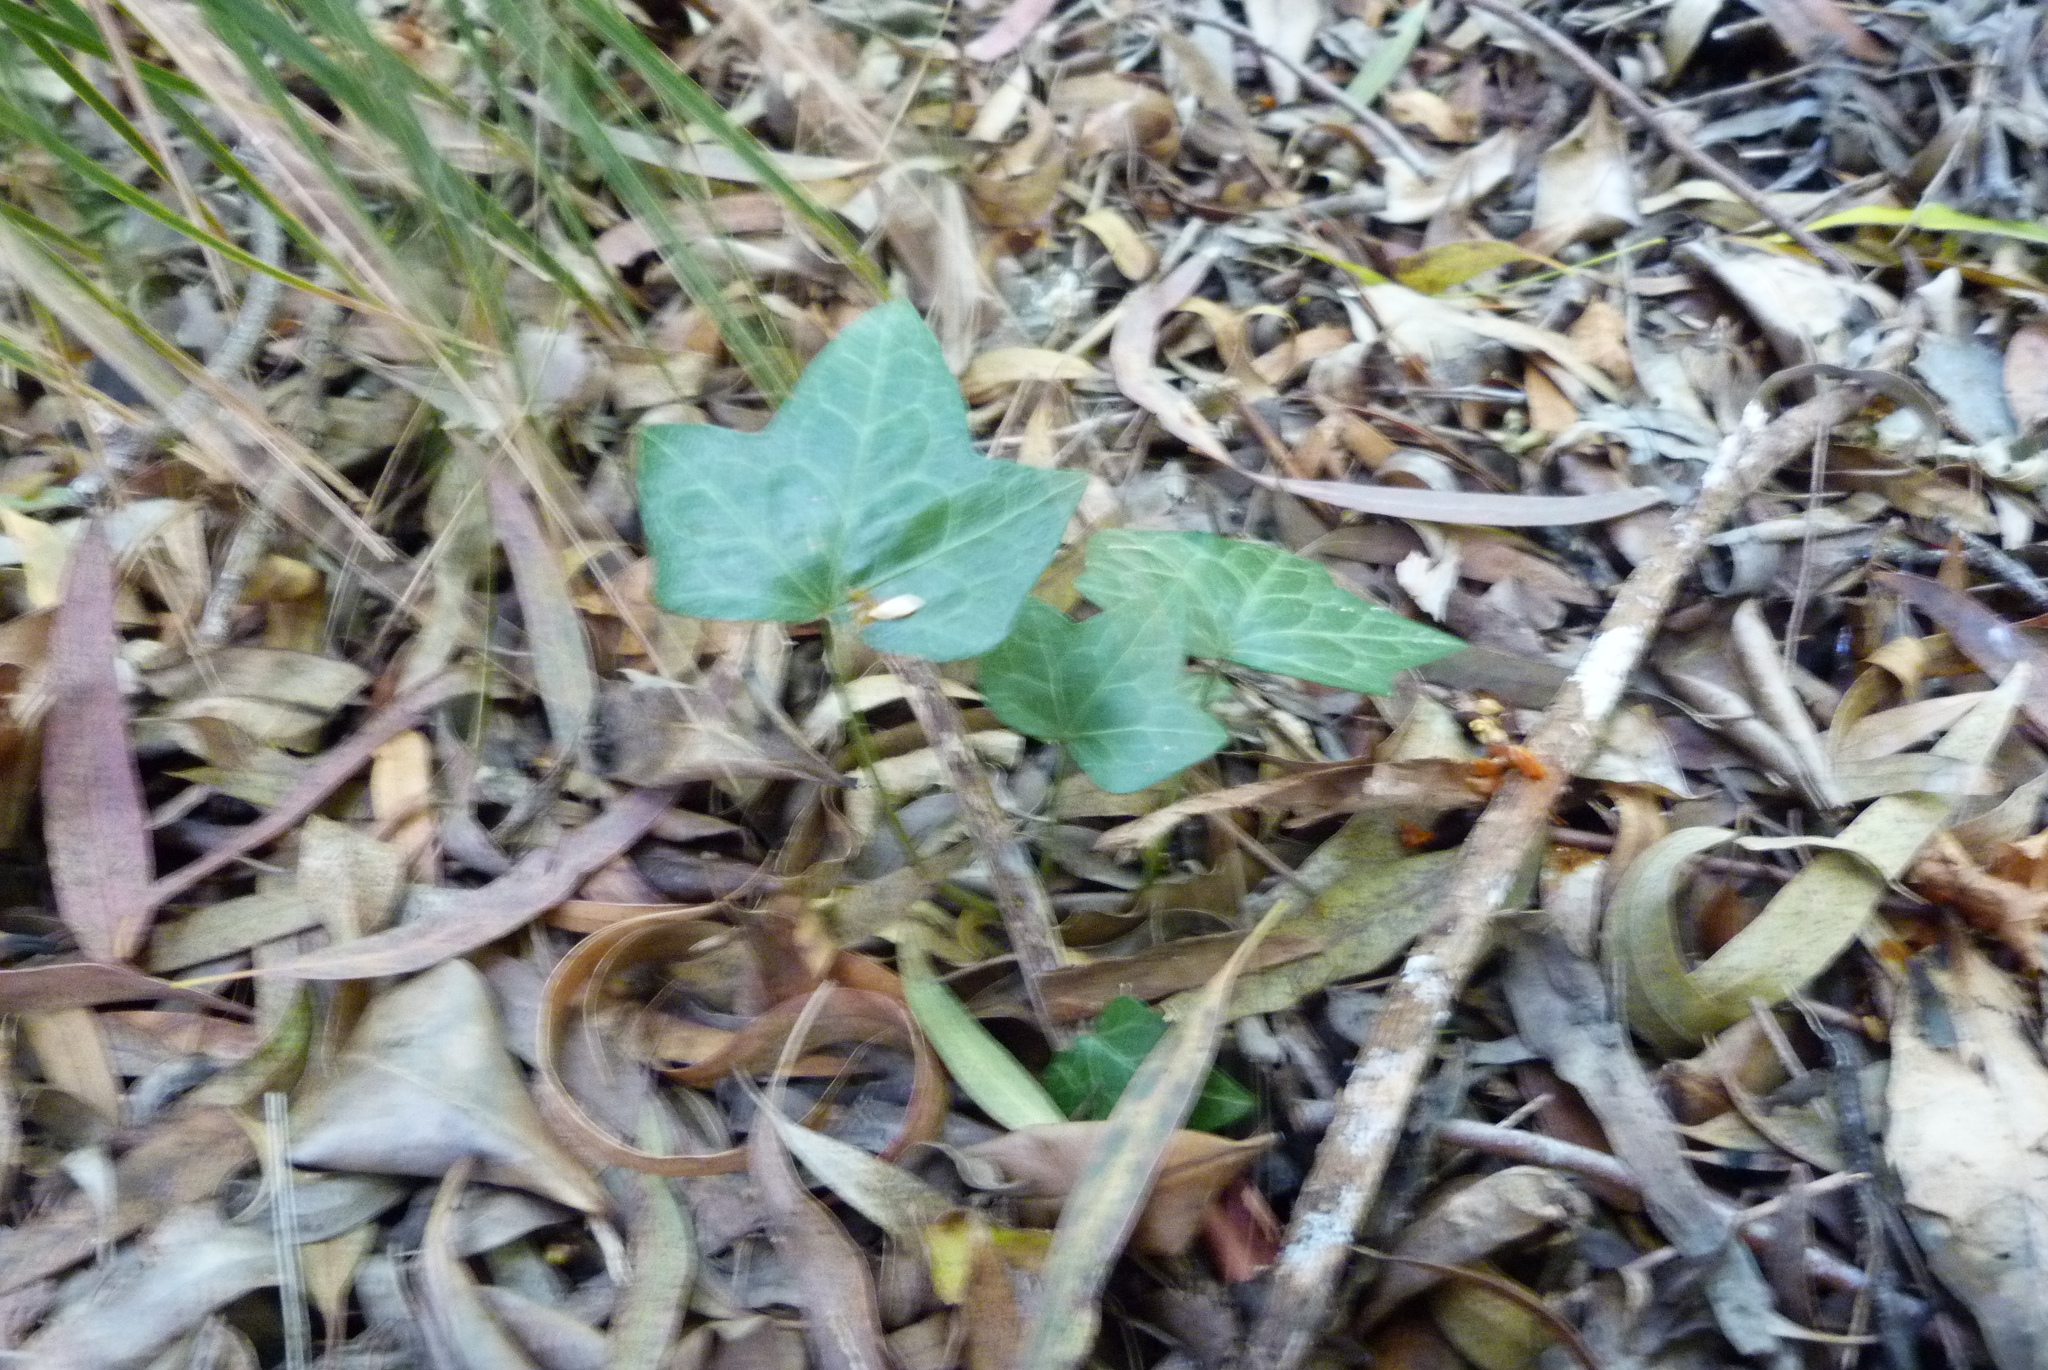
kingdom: Plantae
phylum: Tracheophyta
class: Magnoliopsida
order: Apiales
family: Araliaceae
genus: Hedera
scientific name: Hedera helix
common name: Ivy
